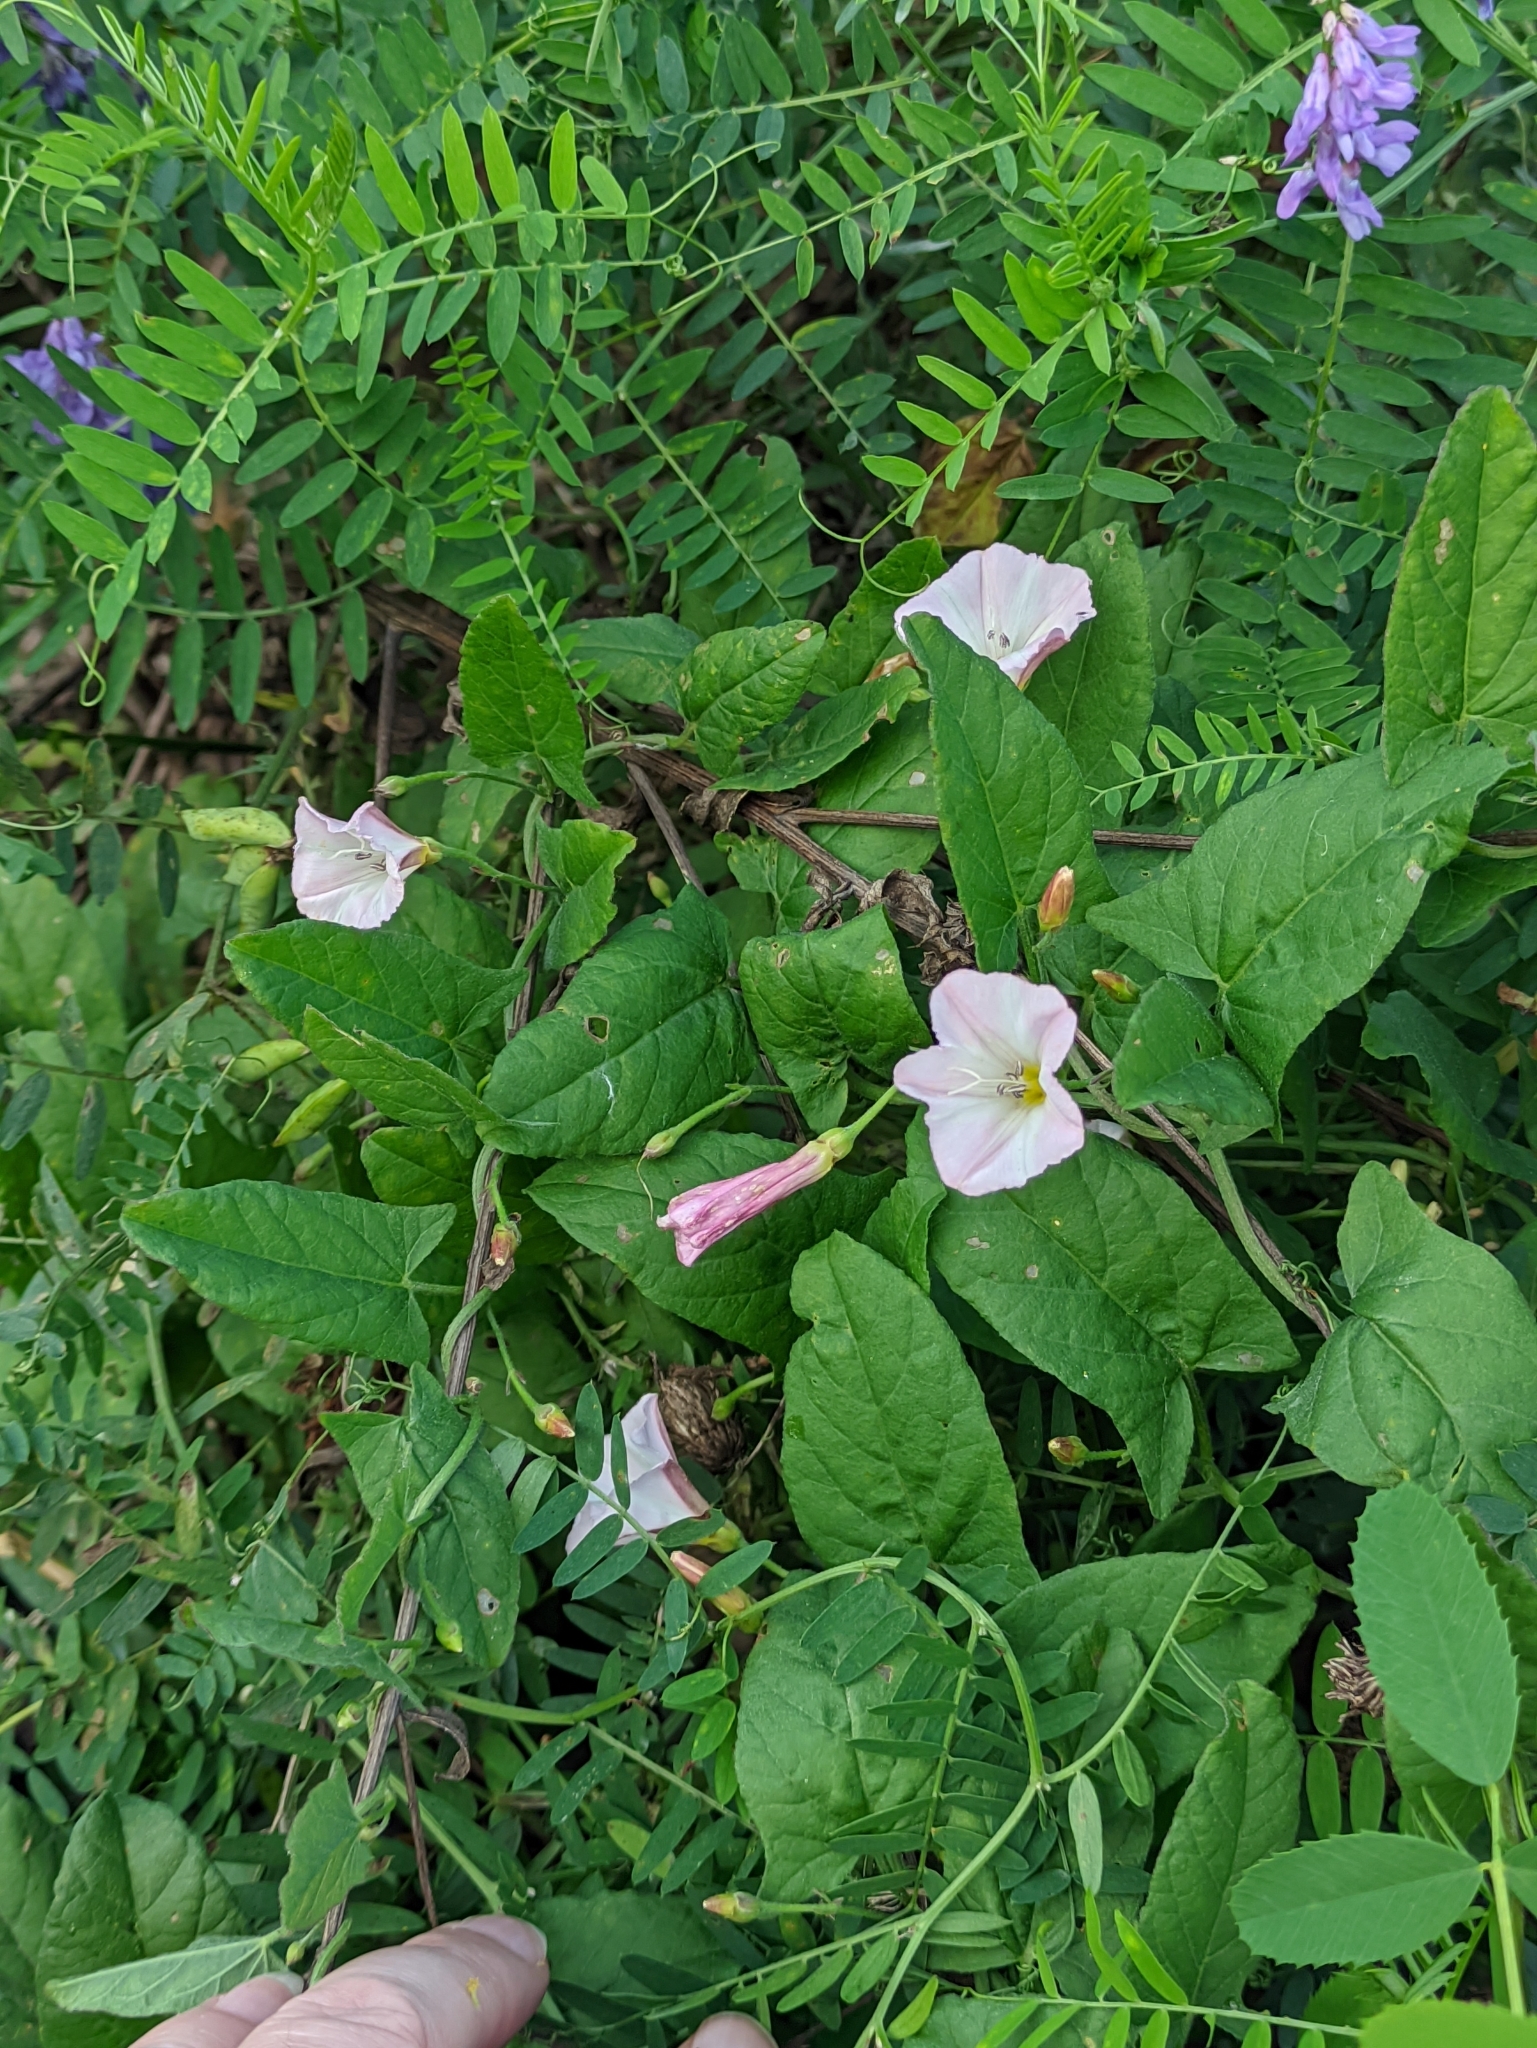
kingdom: Plantae
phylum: Tracheophyta
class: Magnoliopsida
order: Solanales
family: Convolvulaceae
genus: Convolvulus
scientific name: Convolvulus arvensis
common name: Field bindweed
